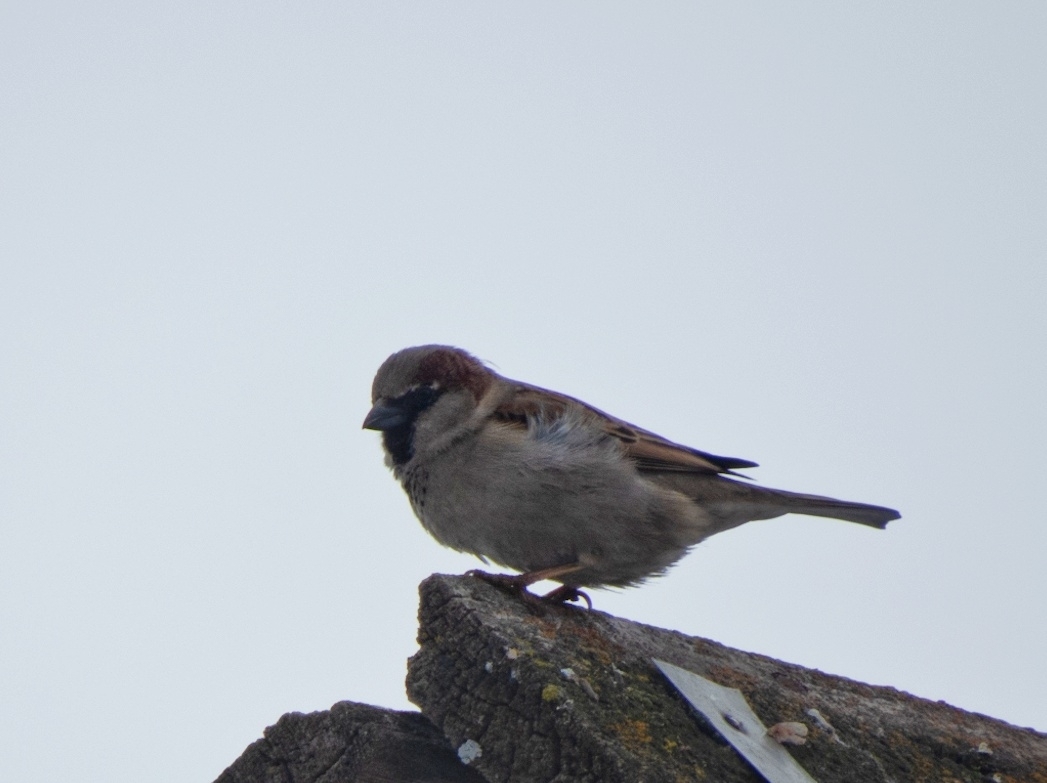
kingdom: Animalia
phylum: Chordata
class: Aves
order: Passeriformes
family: Passeridae
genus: Passer
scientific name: Passer domesticus
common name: House sparrow
